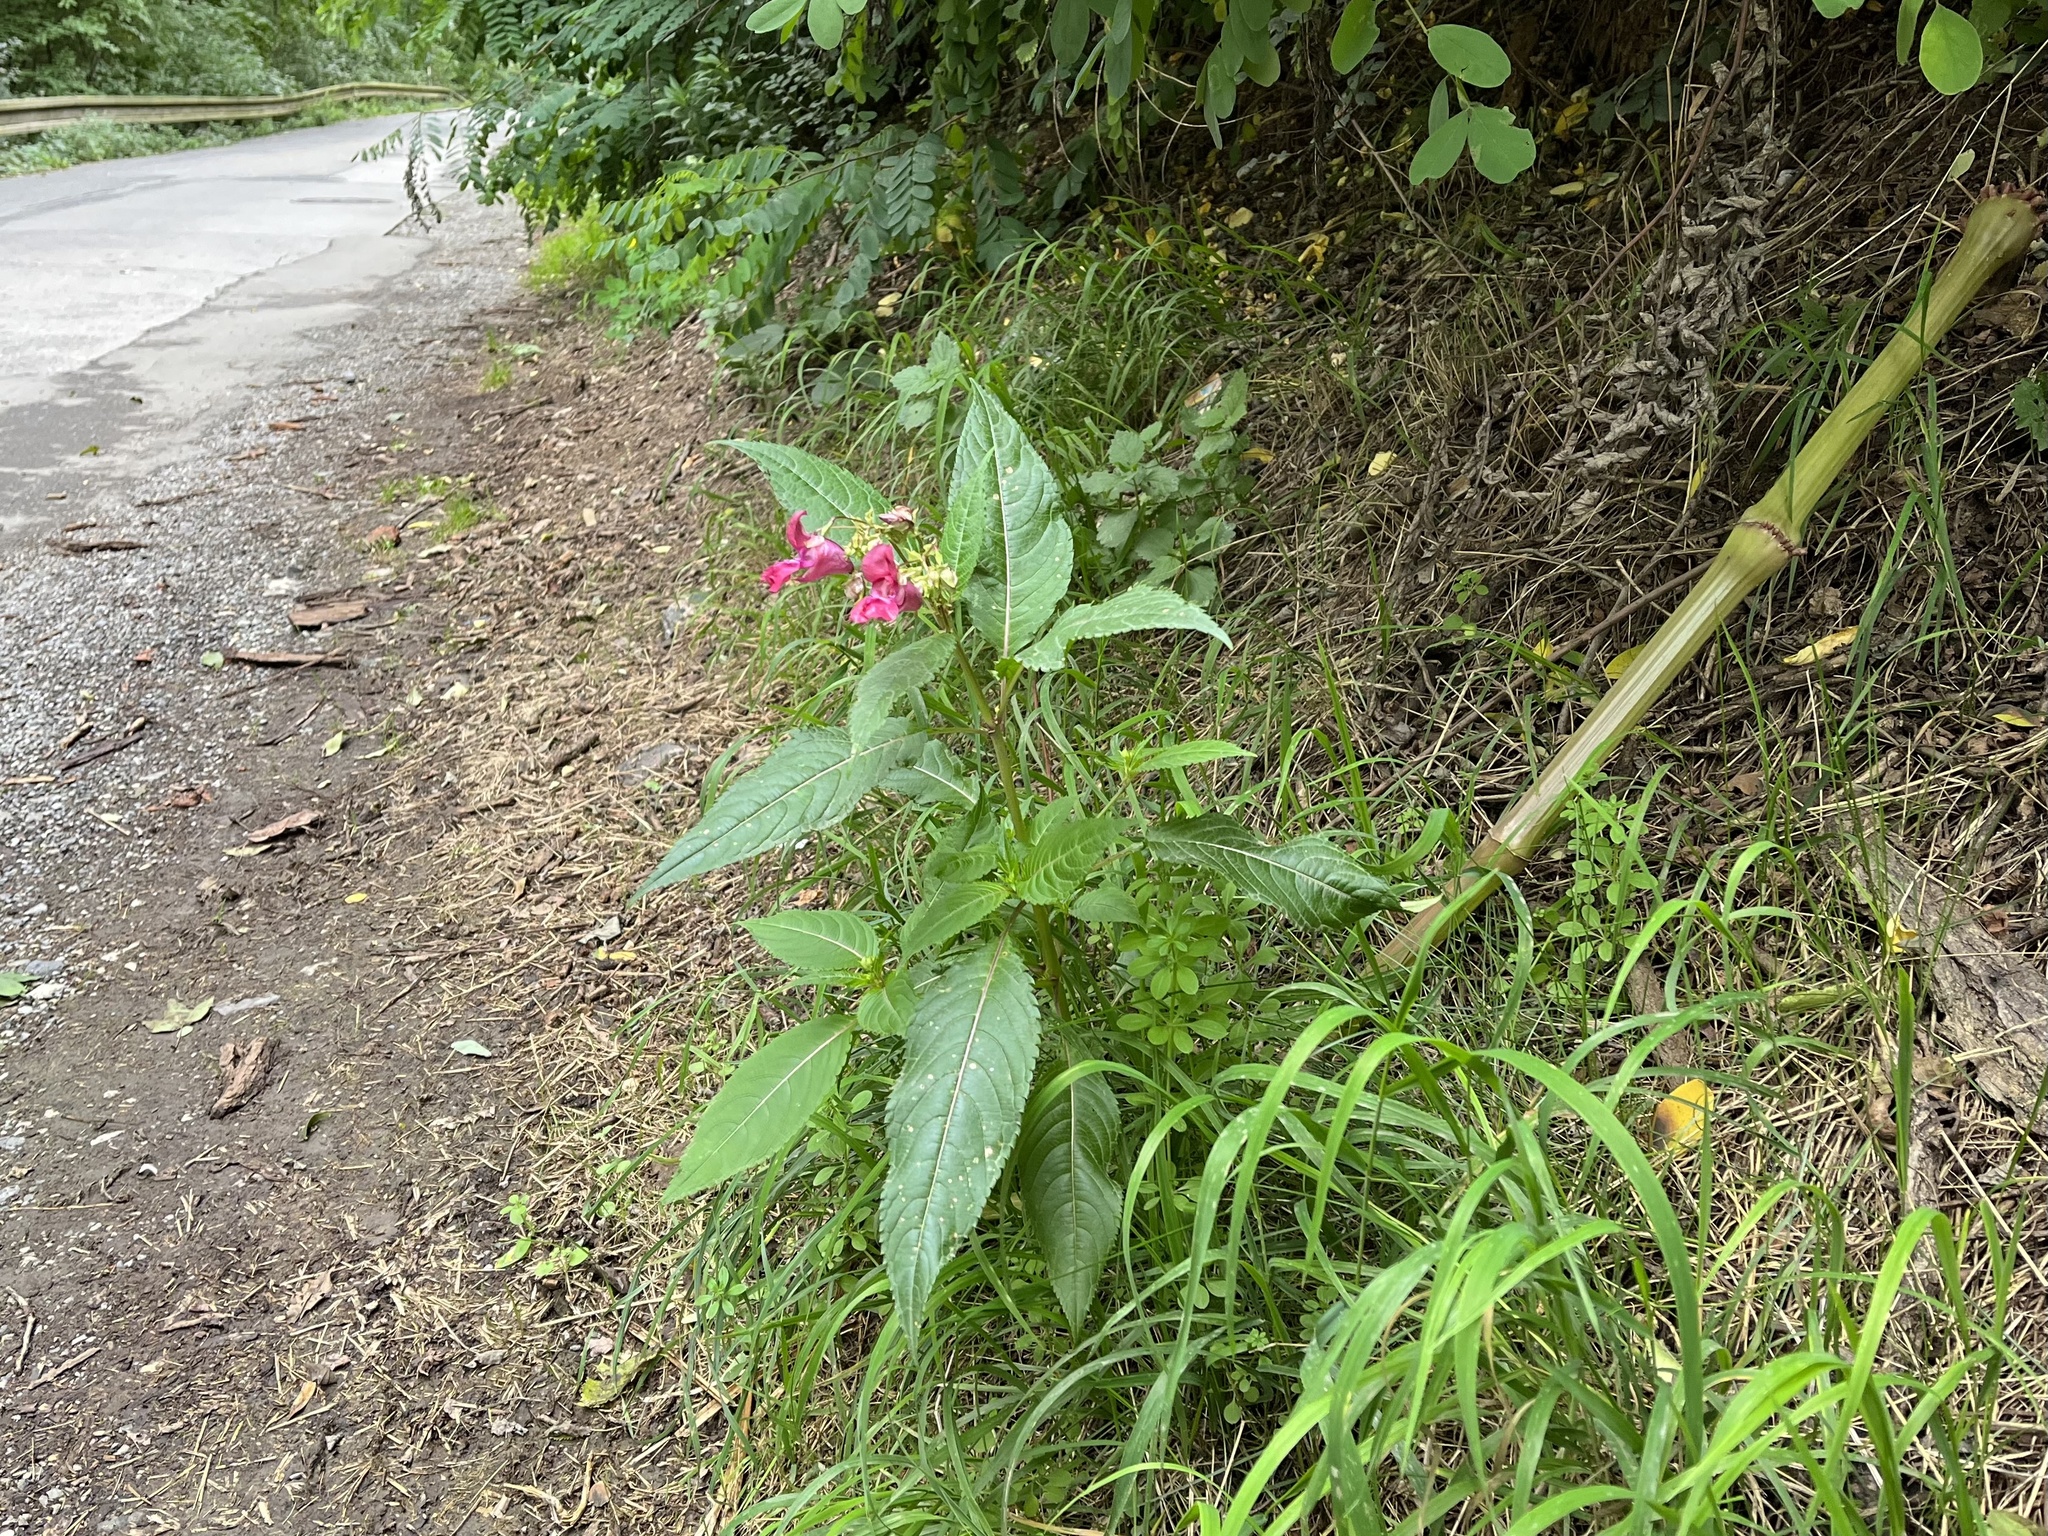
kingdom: Plantae
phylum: Tracheophyta
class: Magnoliopsida
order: Ericales
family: Balsaminaceae
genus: Impatiens
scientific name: Impatiens glandulifera
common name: Himalayan balsam
